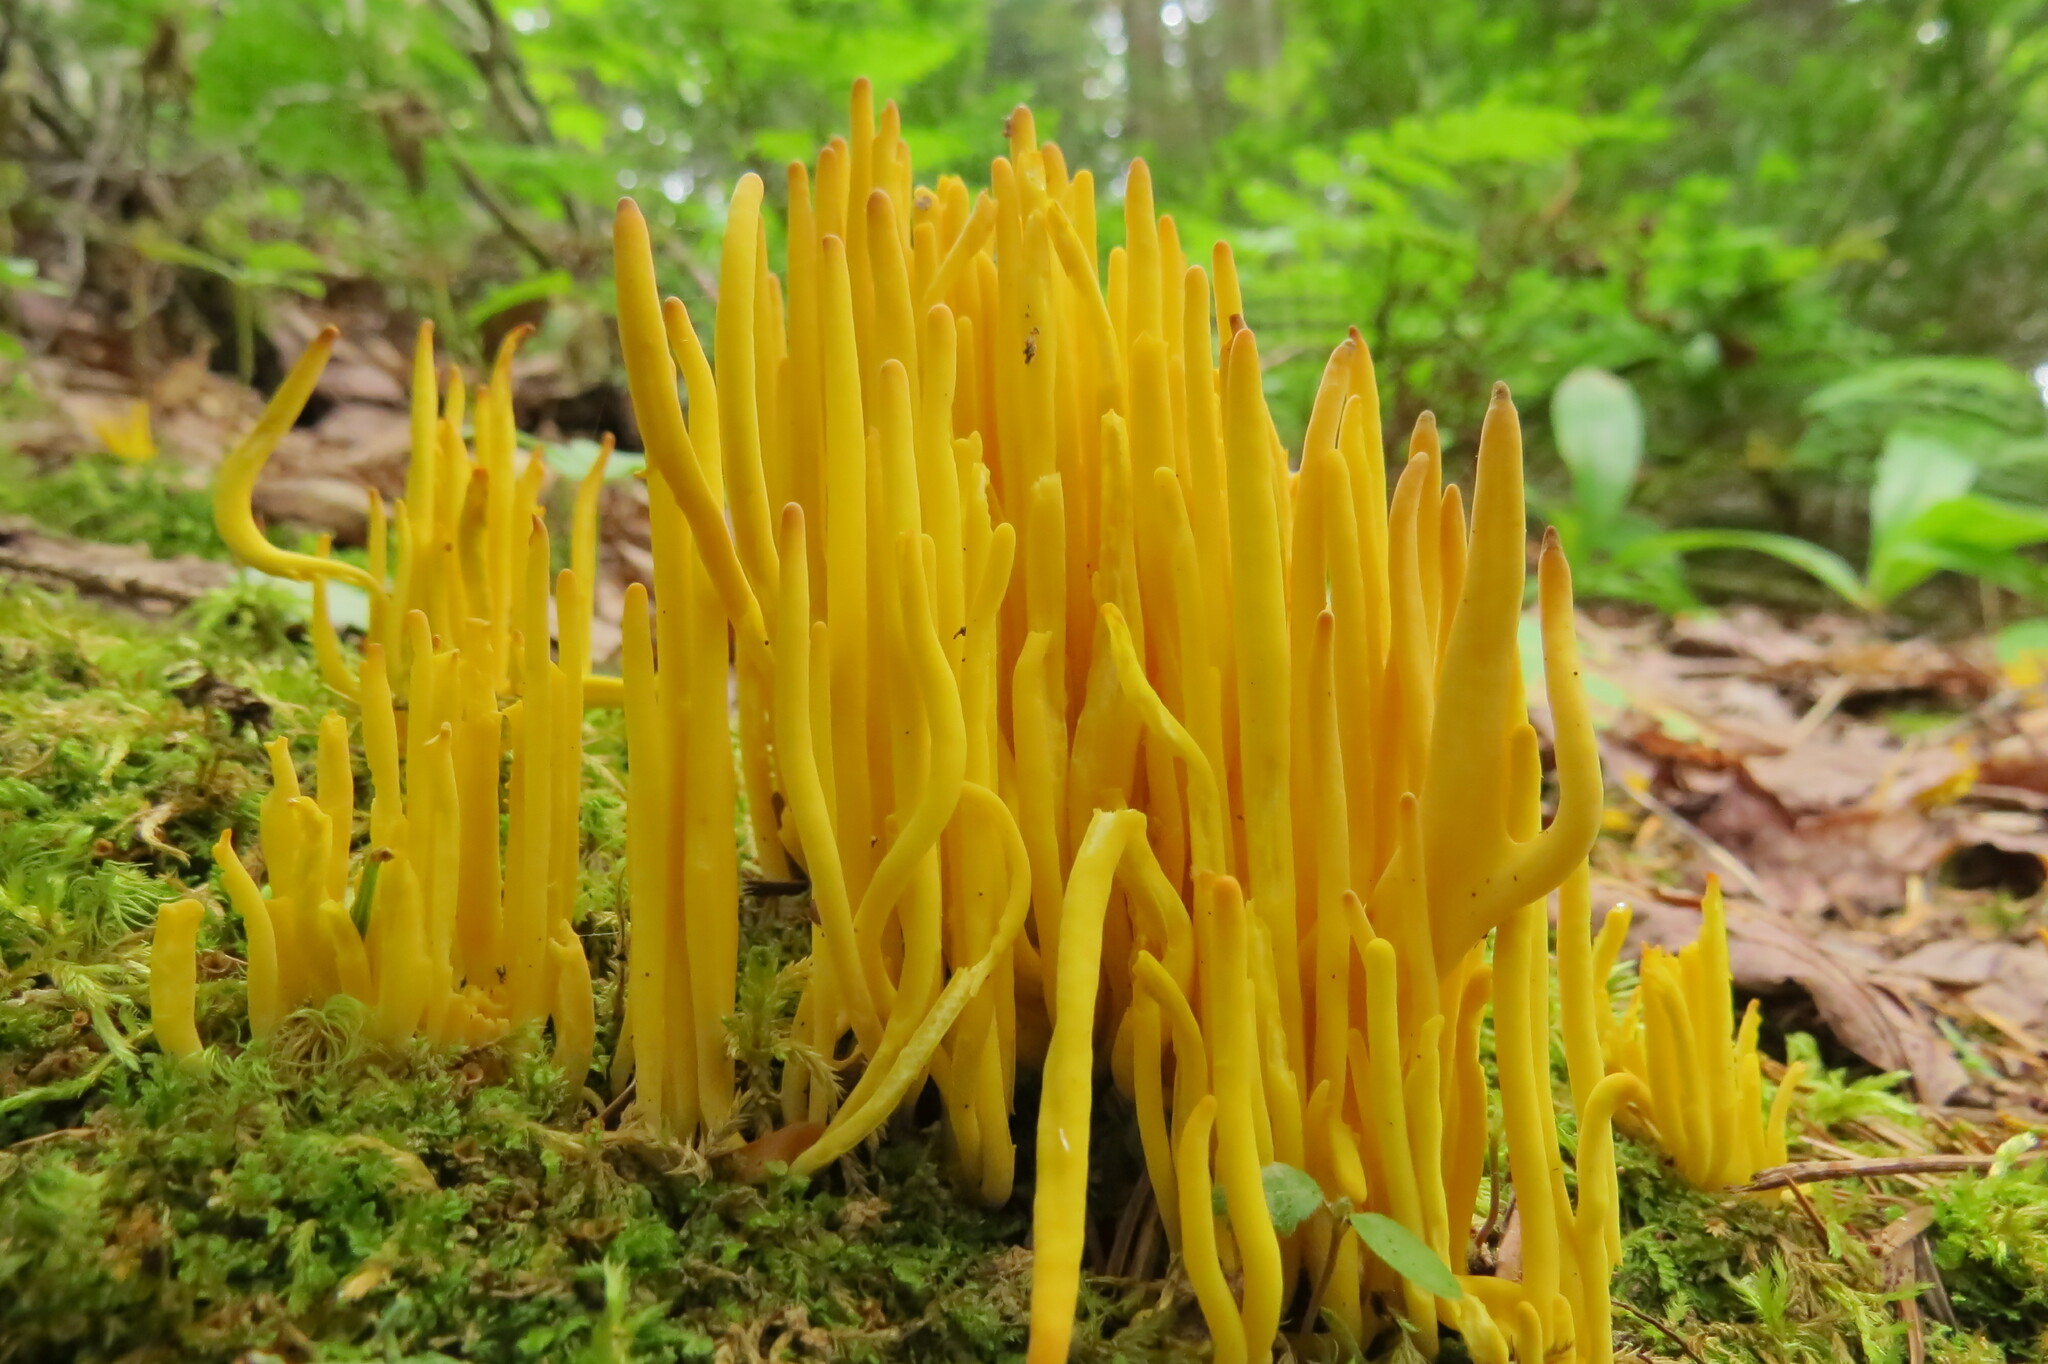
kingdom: Fungi
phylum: Basidiomycota
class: Agaricomycetes
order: Agaricales
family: Clavariaceae
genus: Clavulinopsis
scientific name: Clavulinopsis fusiformis
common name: Golden spindles
